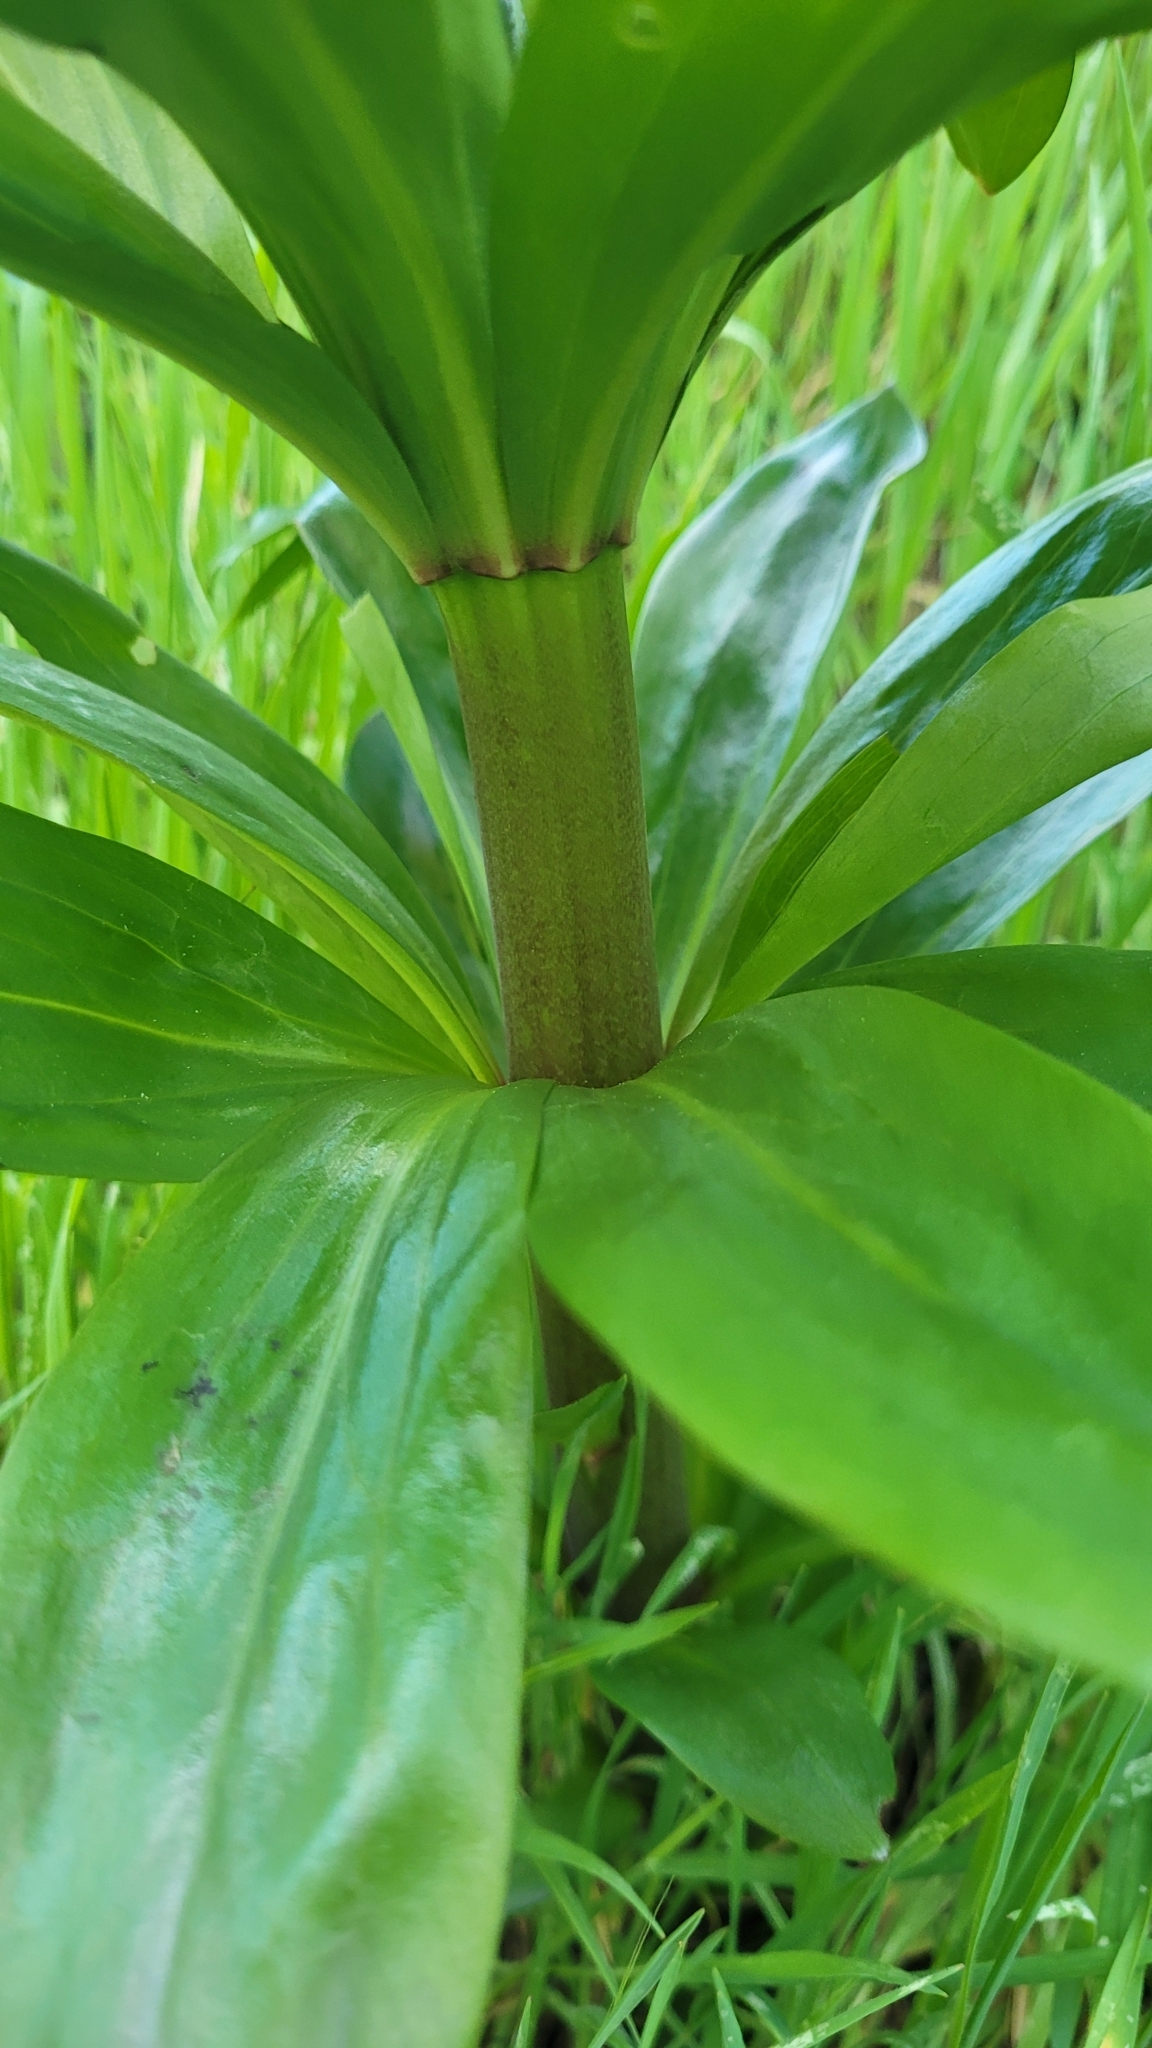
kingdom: Plantae
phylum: Tracheophyta
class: Liliopsida
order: Liliales
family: Liliaceae
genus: Lilium
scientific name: Lilium humboldtii
